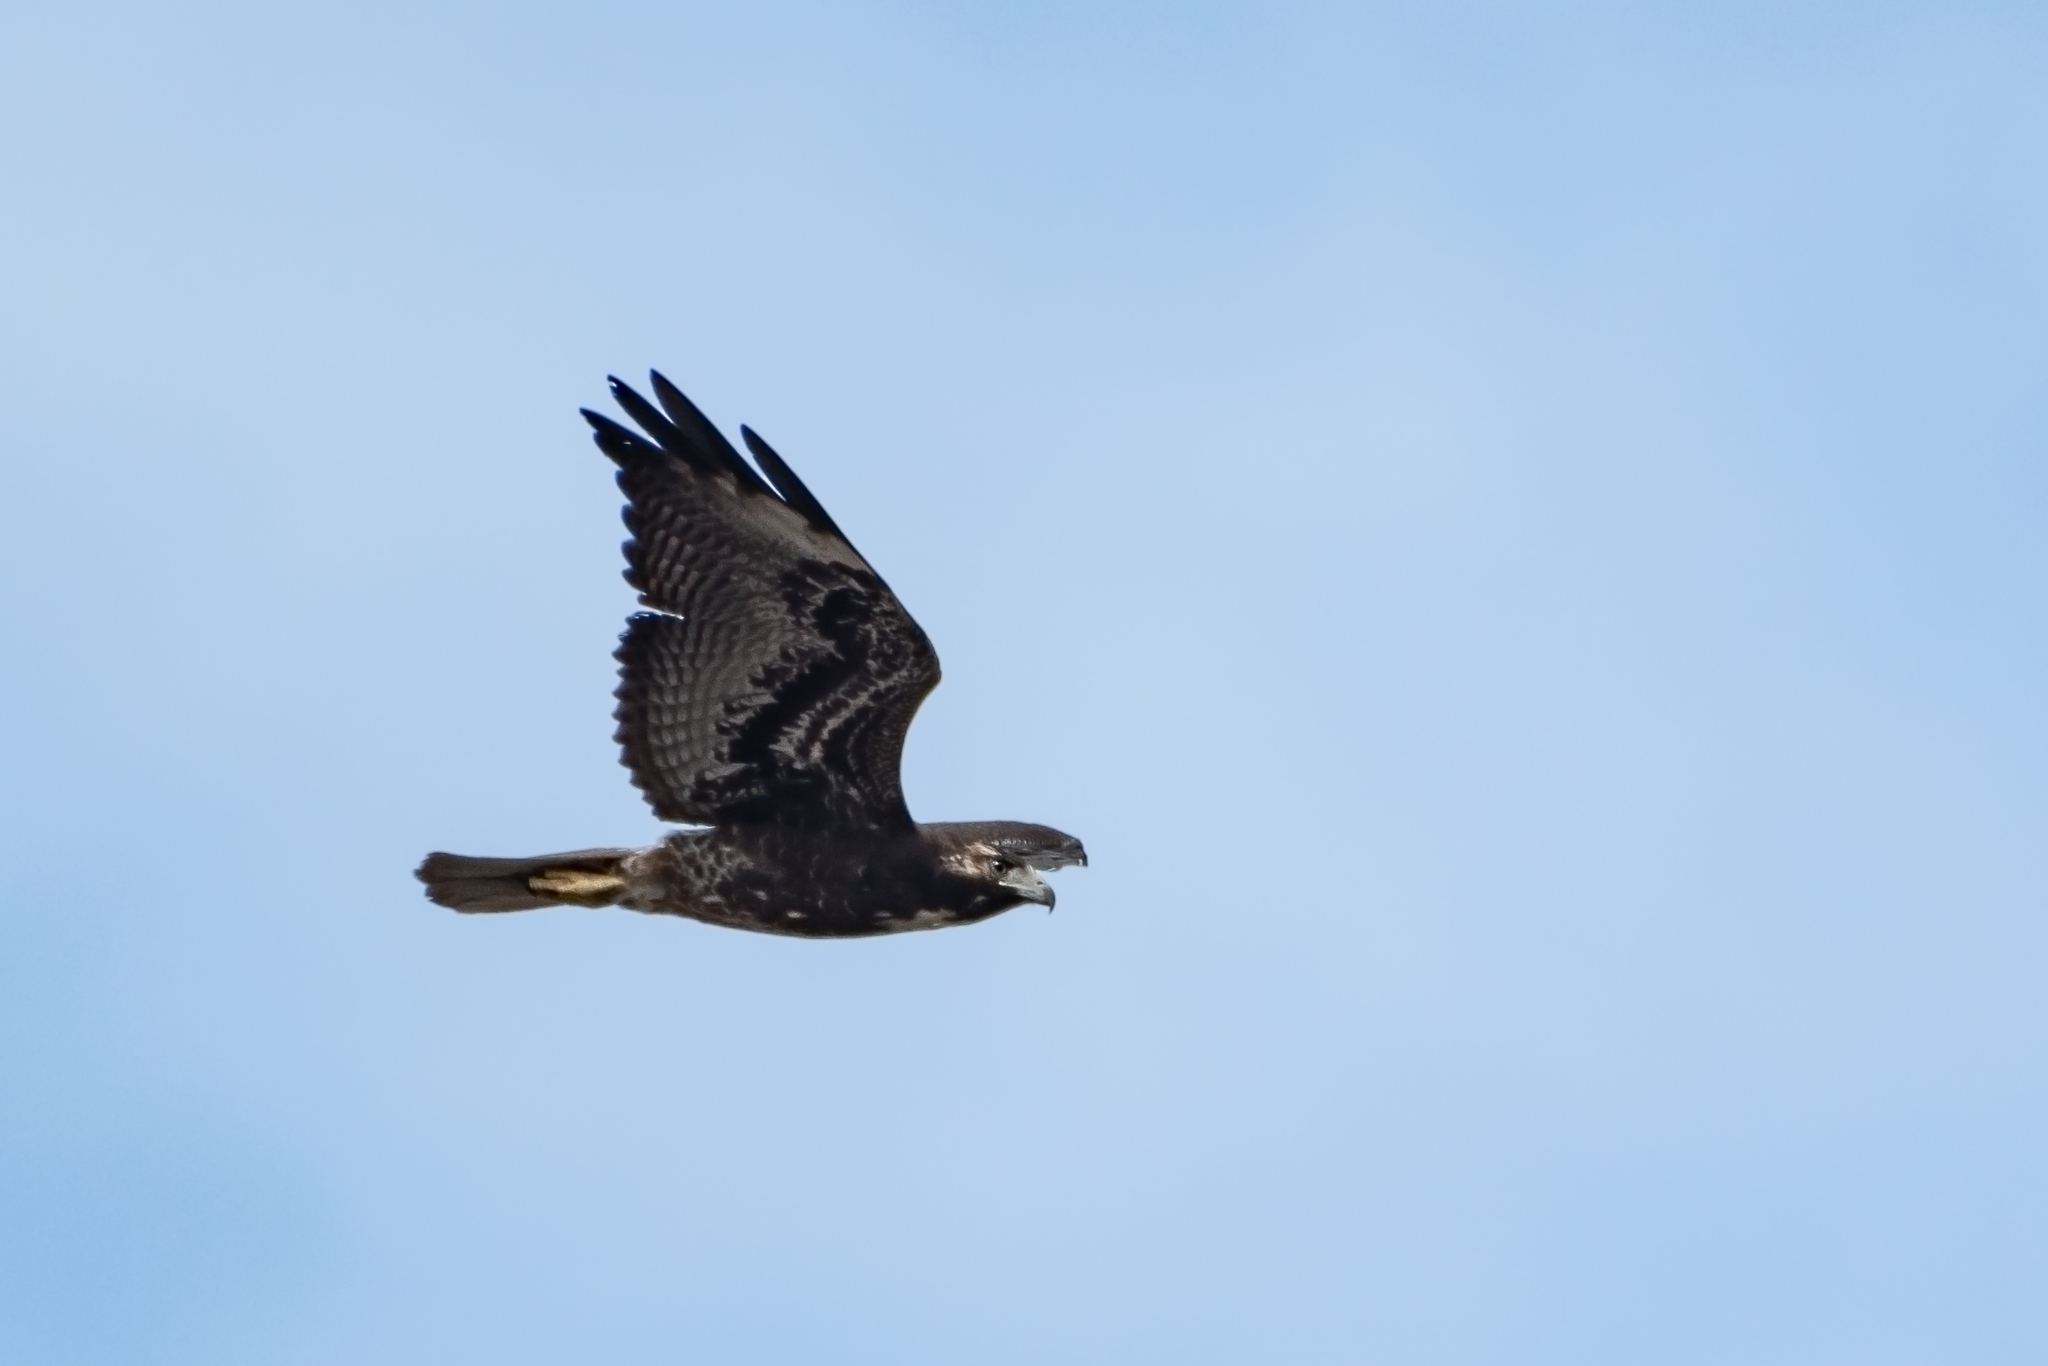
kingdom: Animalia
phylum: Chordata
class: Aves
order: Accipitriformes
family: Accipitridae
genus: Buteo
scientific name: Buteo albicaudatus
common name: White-tailed hawk
